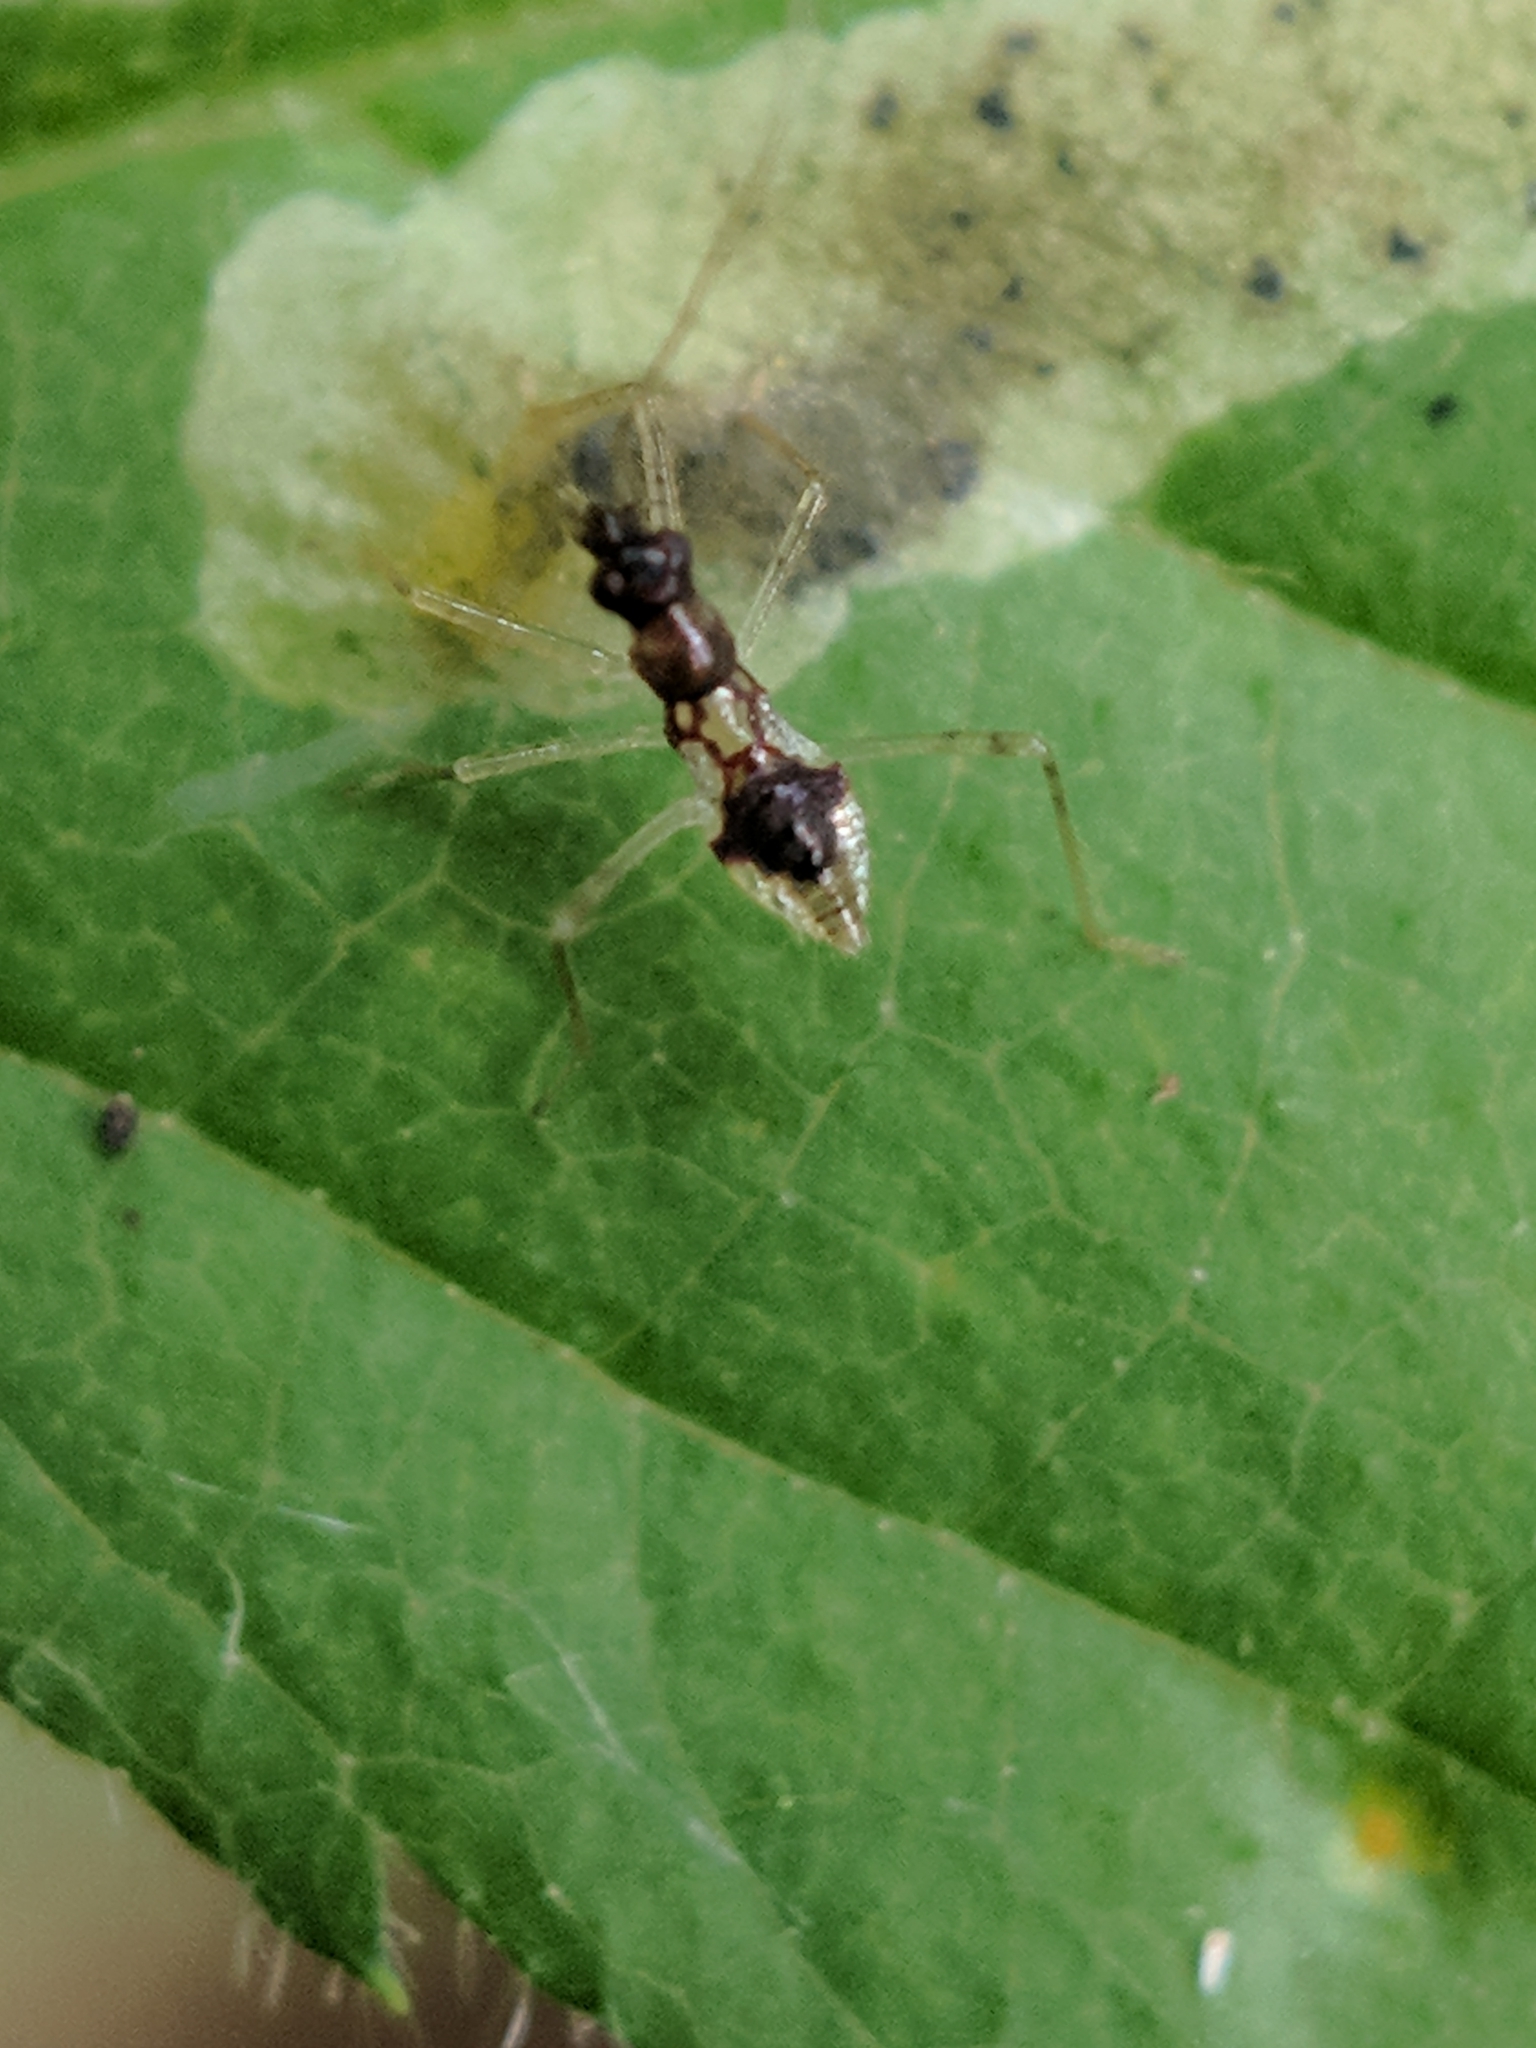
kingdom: Animalia
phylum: Arthropoda
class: Insecta
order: Diptera
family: Agromyzidae
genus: Agromyza
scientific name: Agromyza vockerothi
